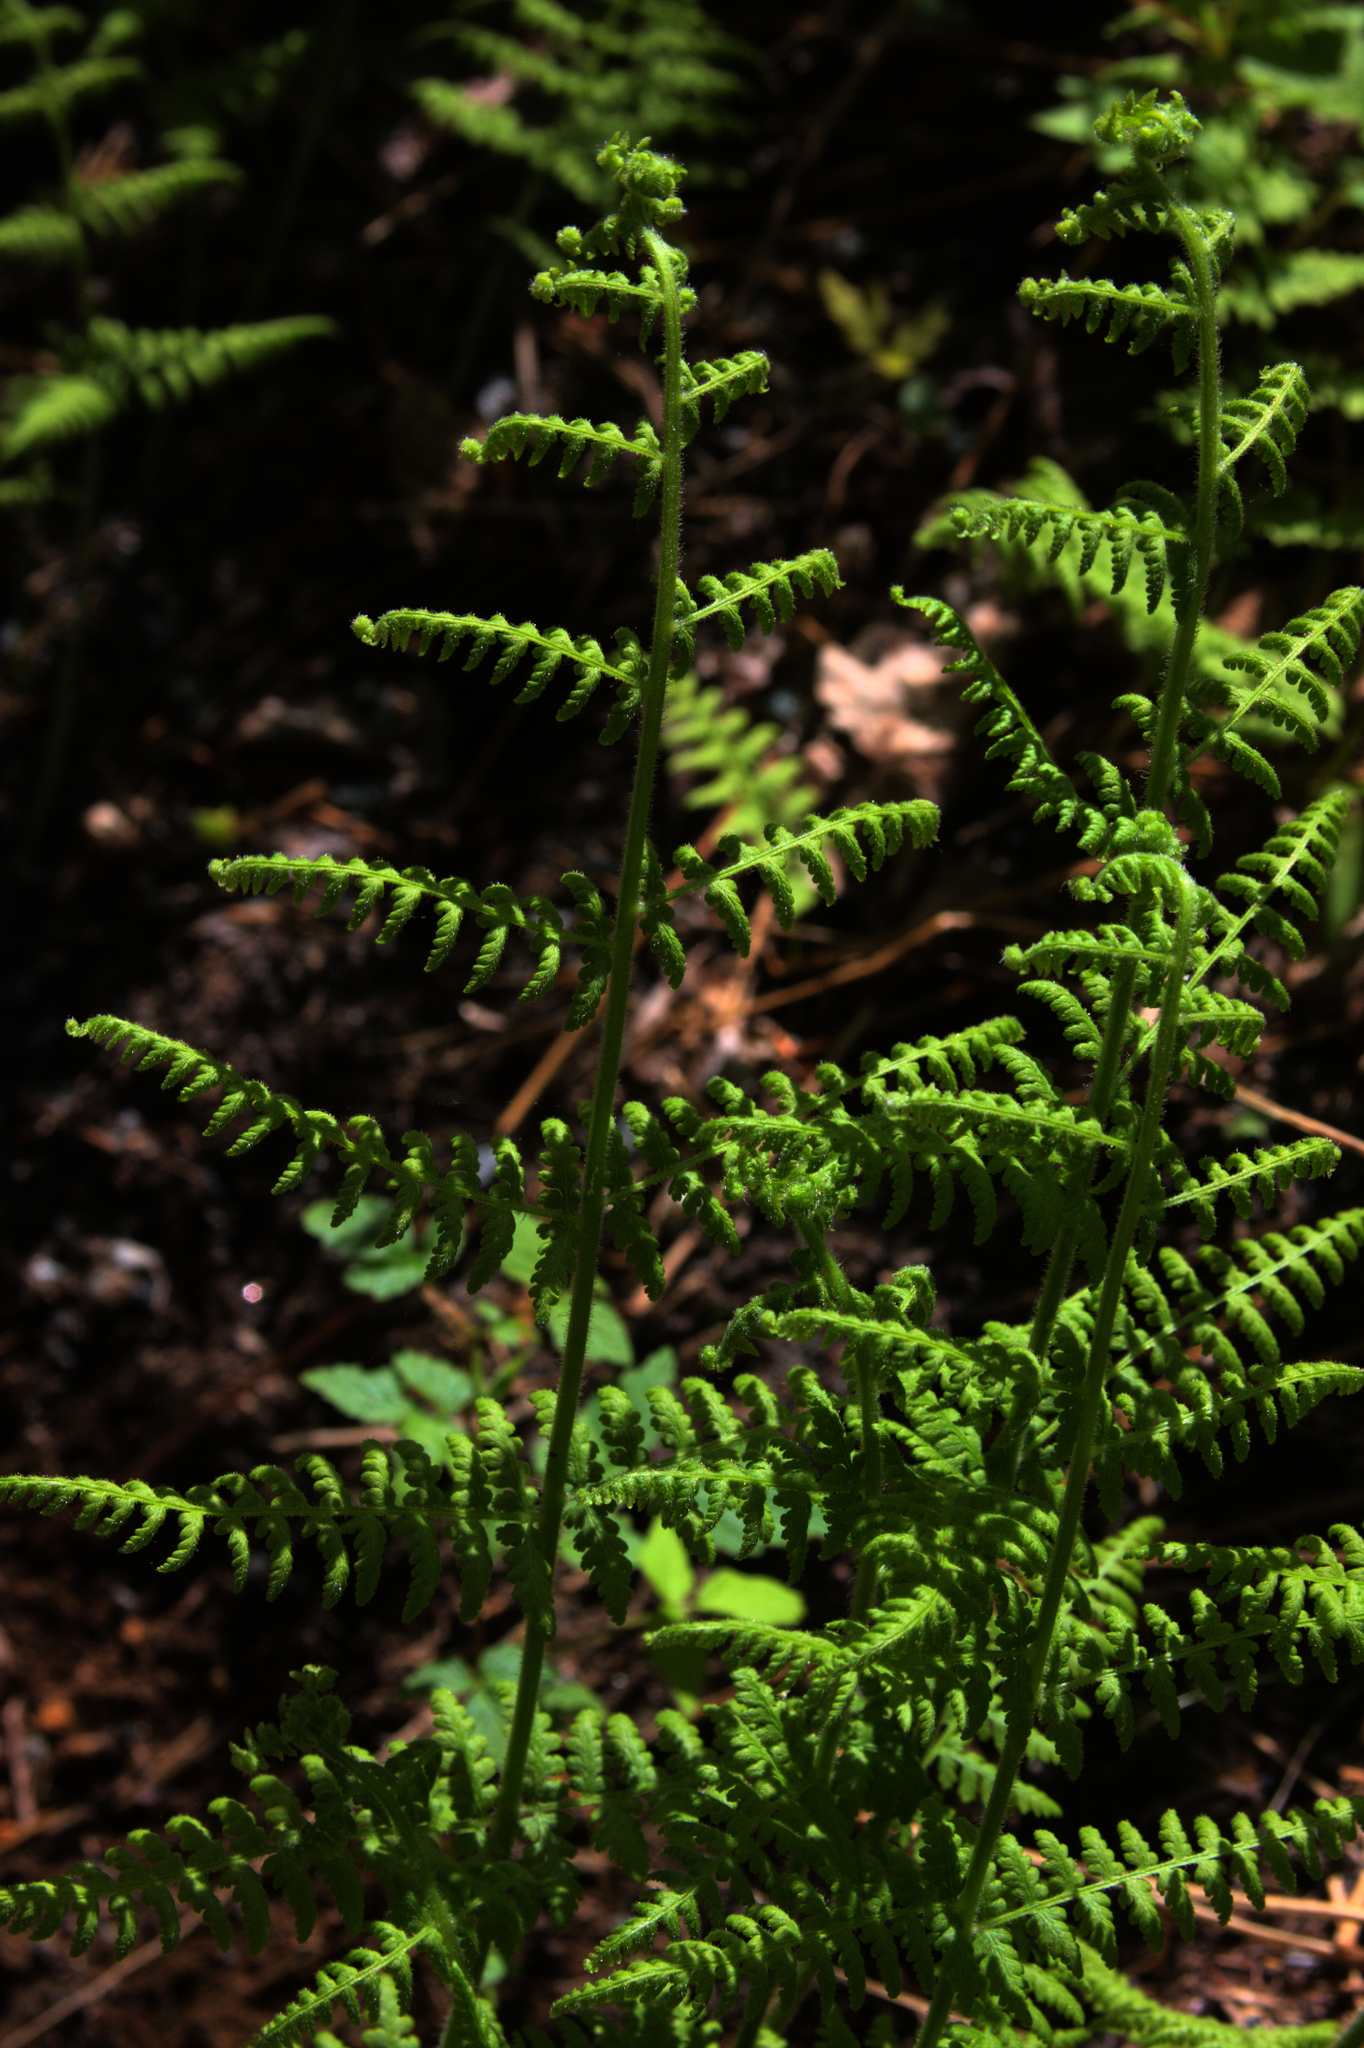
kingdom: Plantae
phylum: Tracheophyta
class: Polypodiopsida
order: Polypodiales
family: Dennstaedtiaceae
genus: Sitobolium
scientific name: Sitobolium punctilobum
